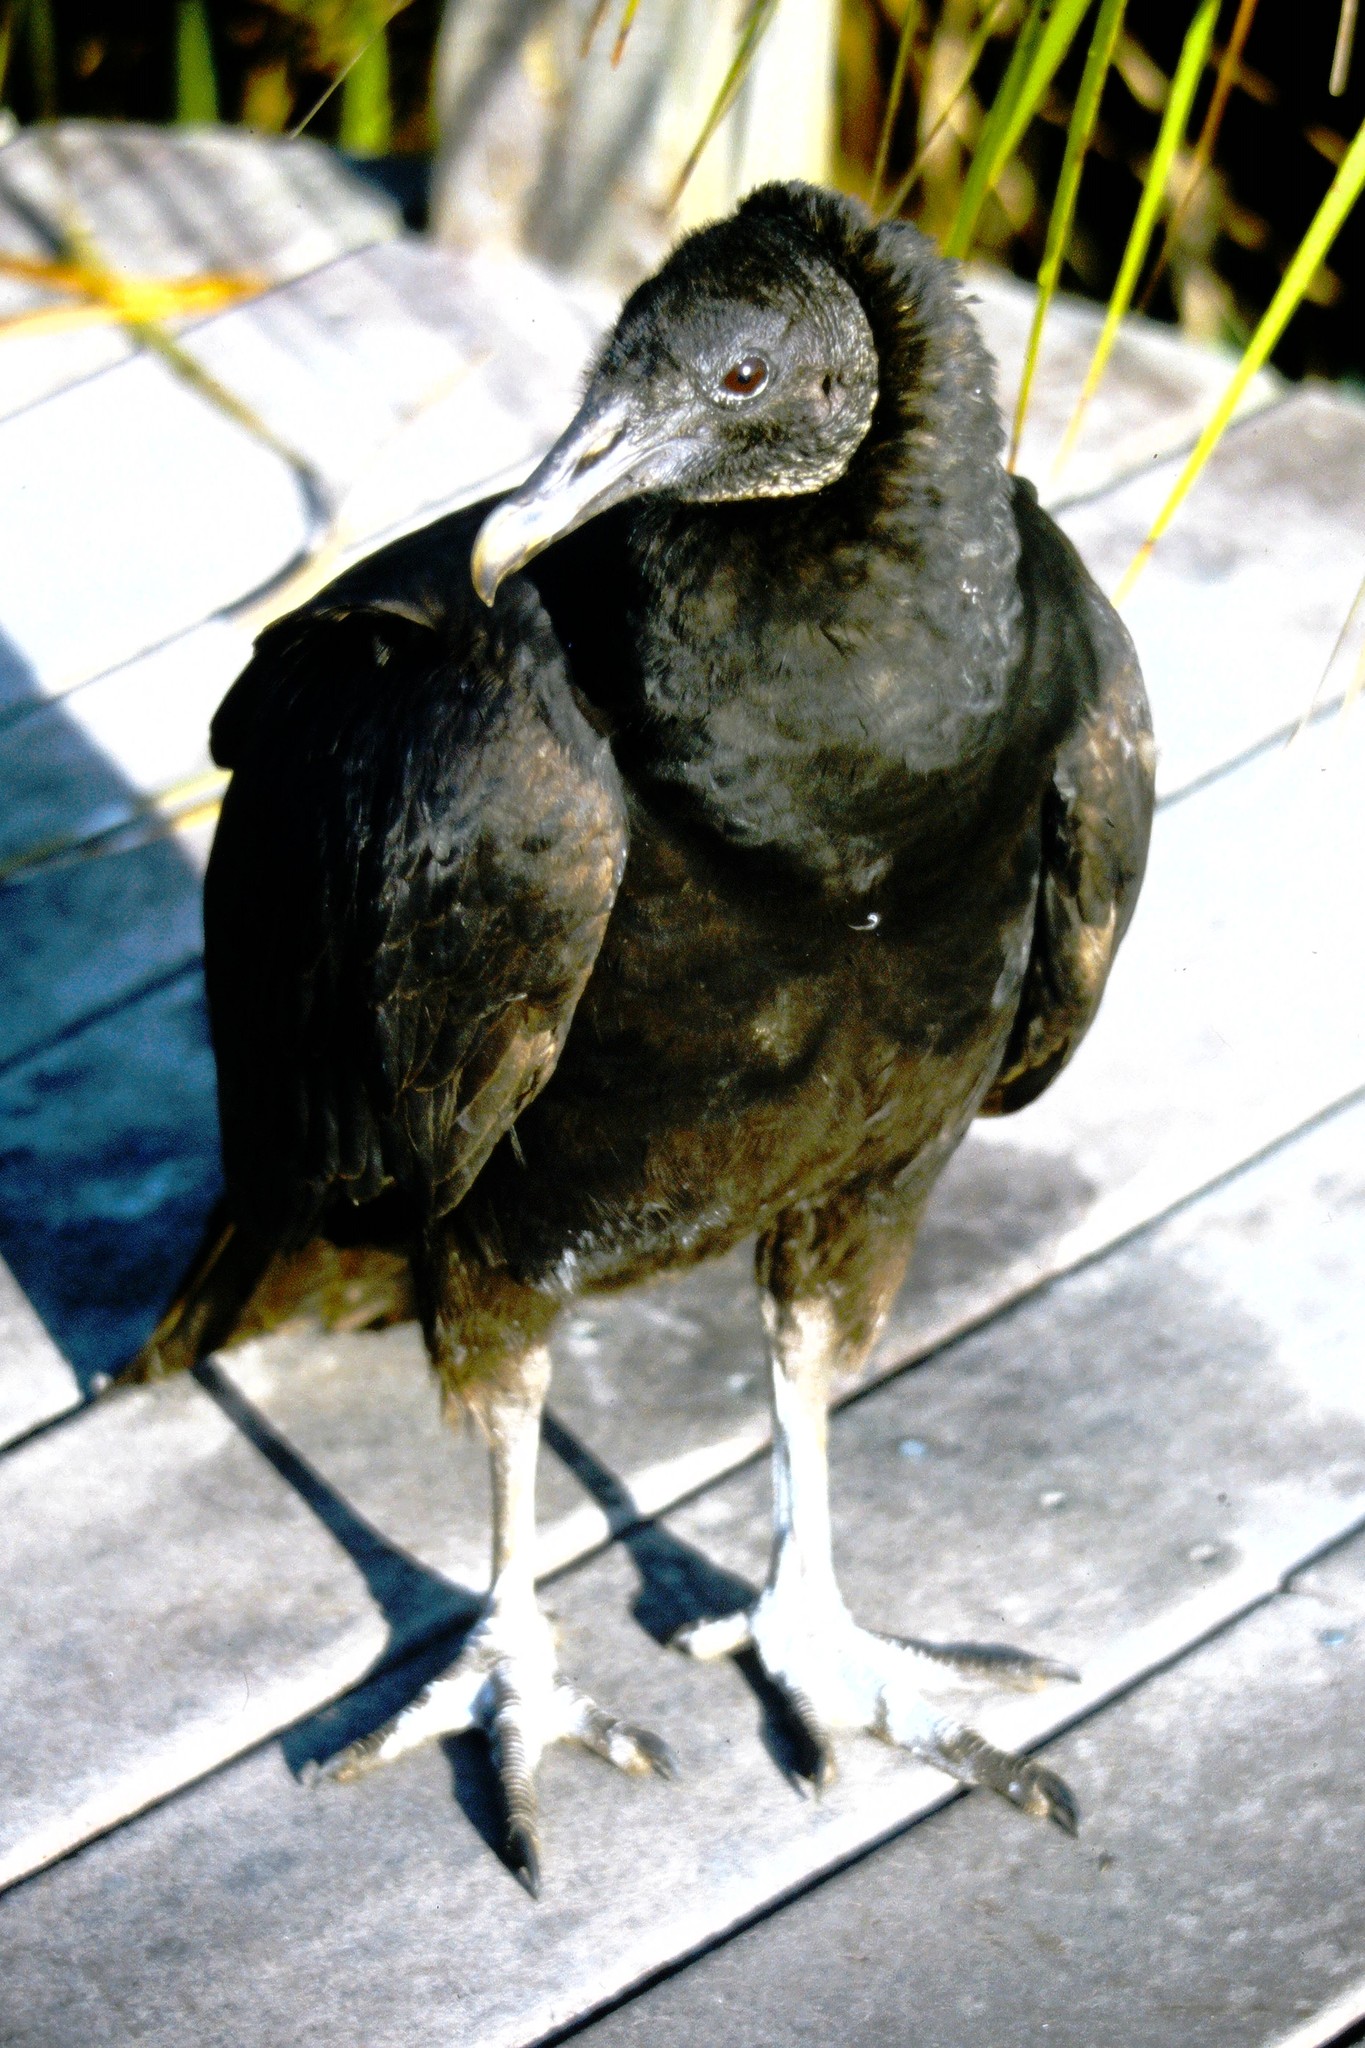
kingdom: Animalia
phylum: Chordata
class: Aves
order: Accipitriformes
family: Cathartidae
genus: Coragyps
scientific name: Coragyps atratus
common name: Black vulture
